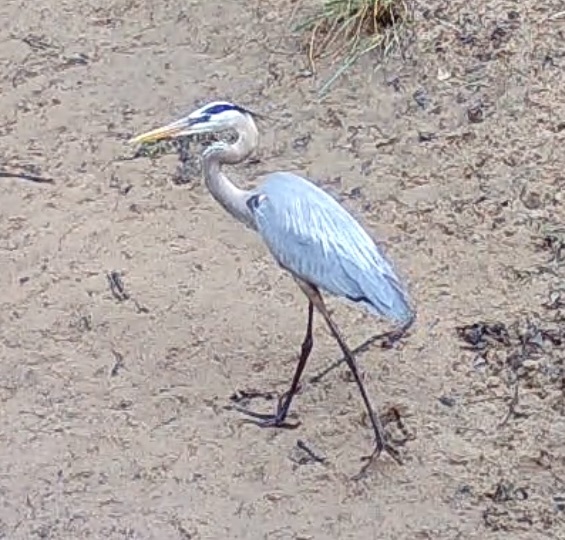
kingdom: Animalia
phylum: Chordata
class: Aves
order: Pelecaniformes
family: Ardeidae
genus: Ardea
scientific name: Ardea herodias
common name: Great blue heron
